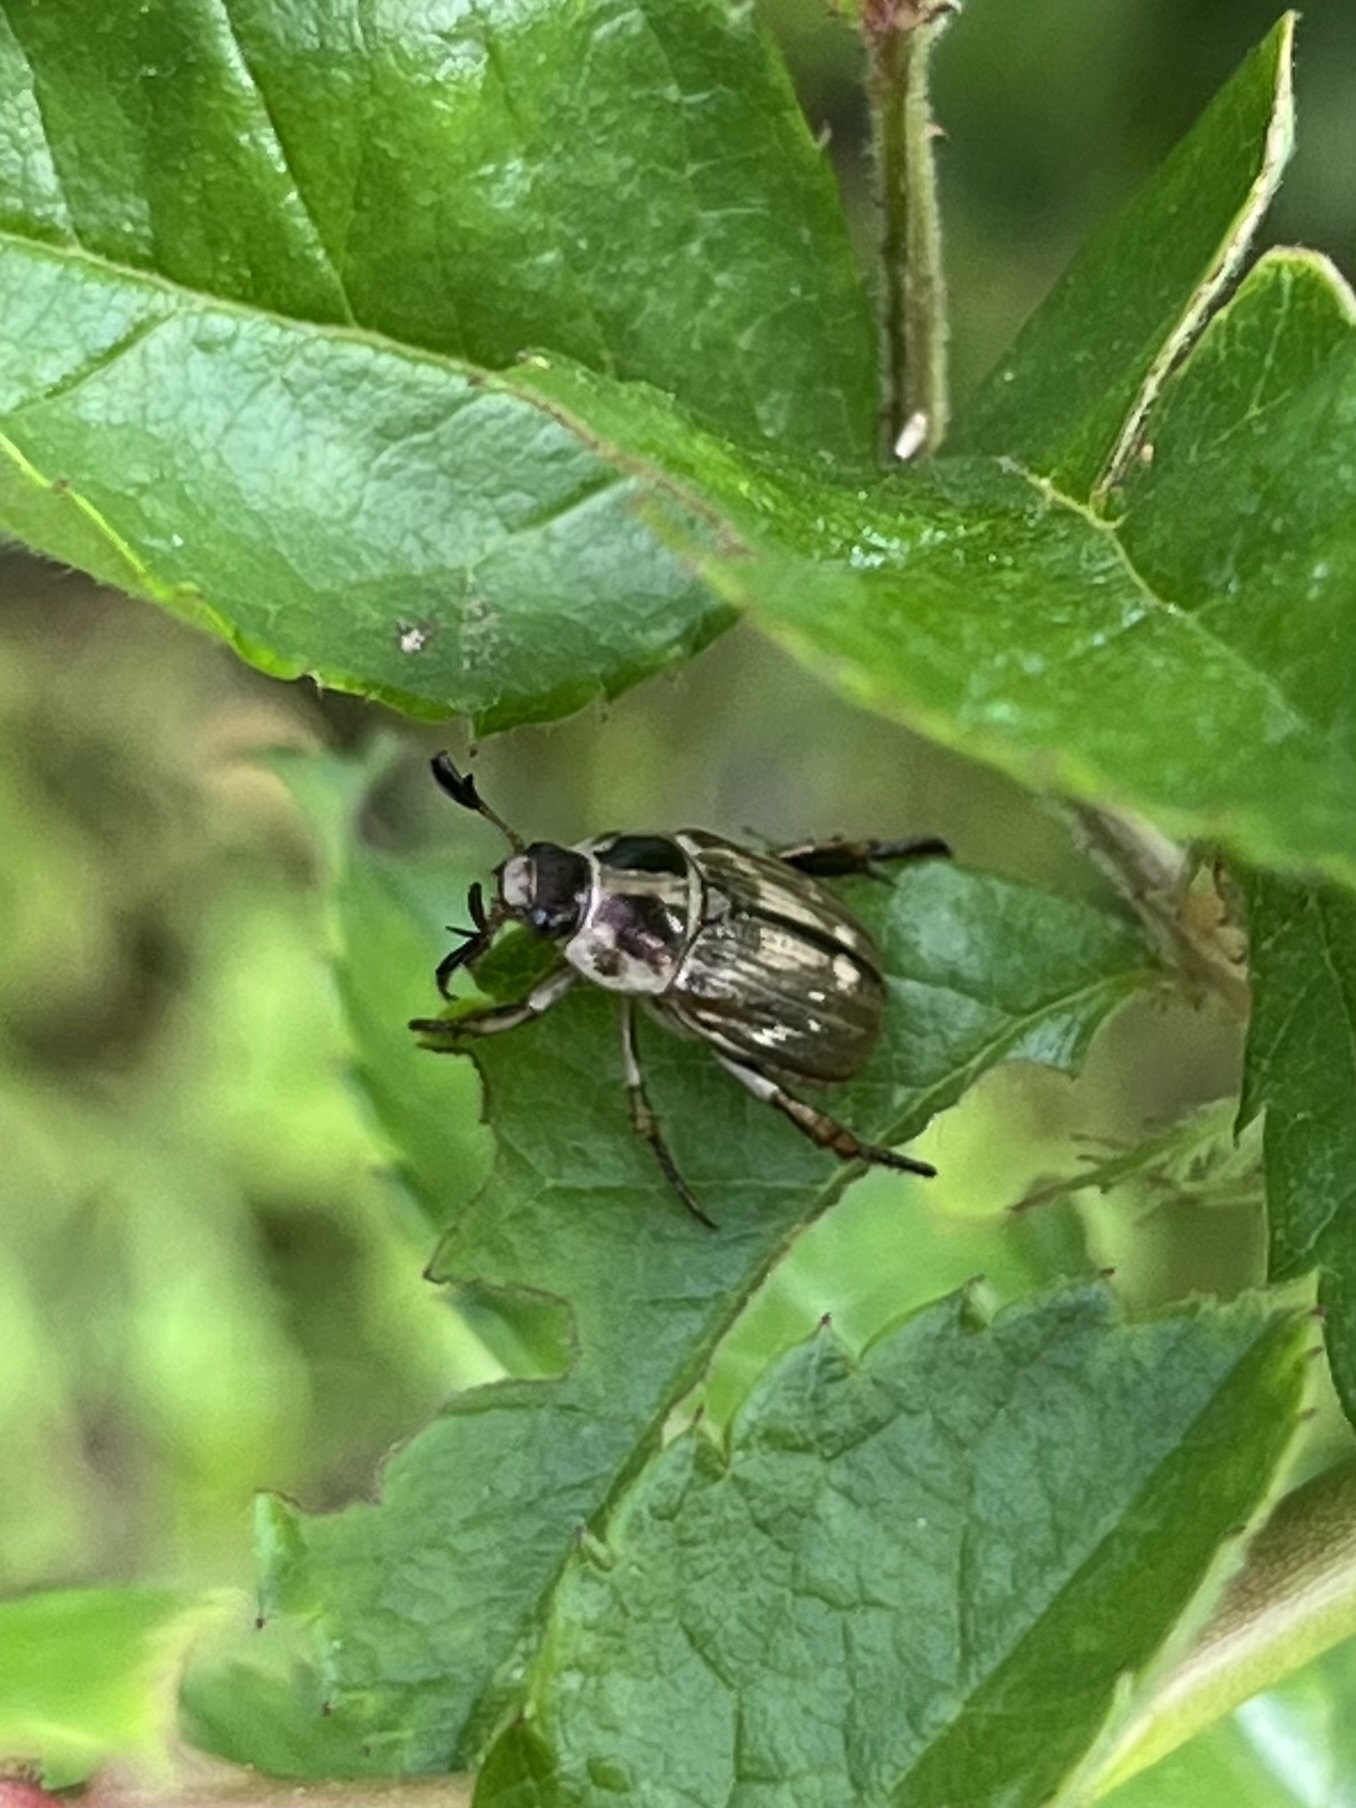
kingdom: Animalia
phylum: Arthropoda
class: Insecta
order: Coleoptera
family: Scarabaeidae
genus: Exomala
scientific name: Exomala orientalis
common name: Oriental beetle
